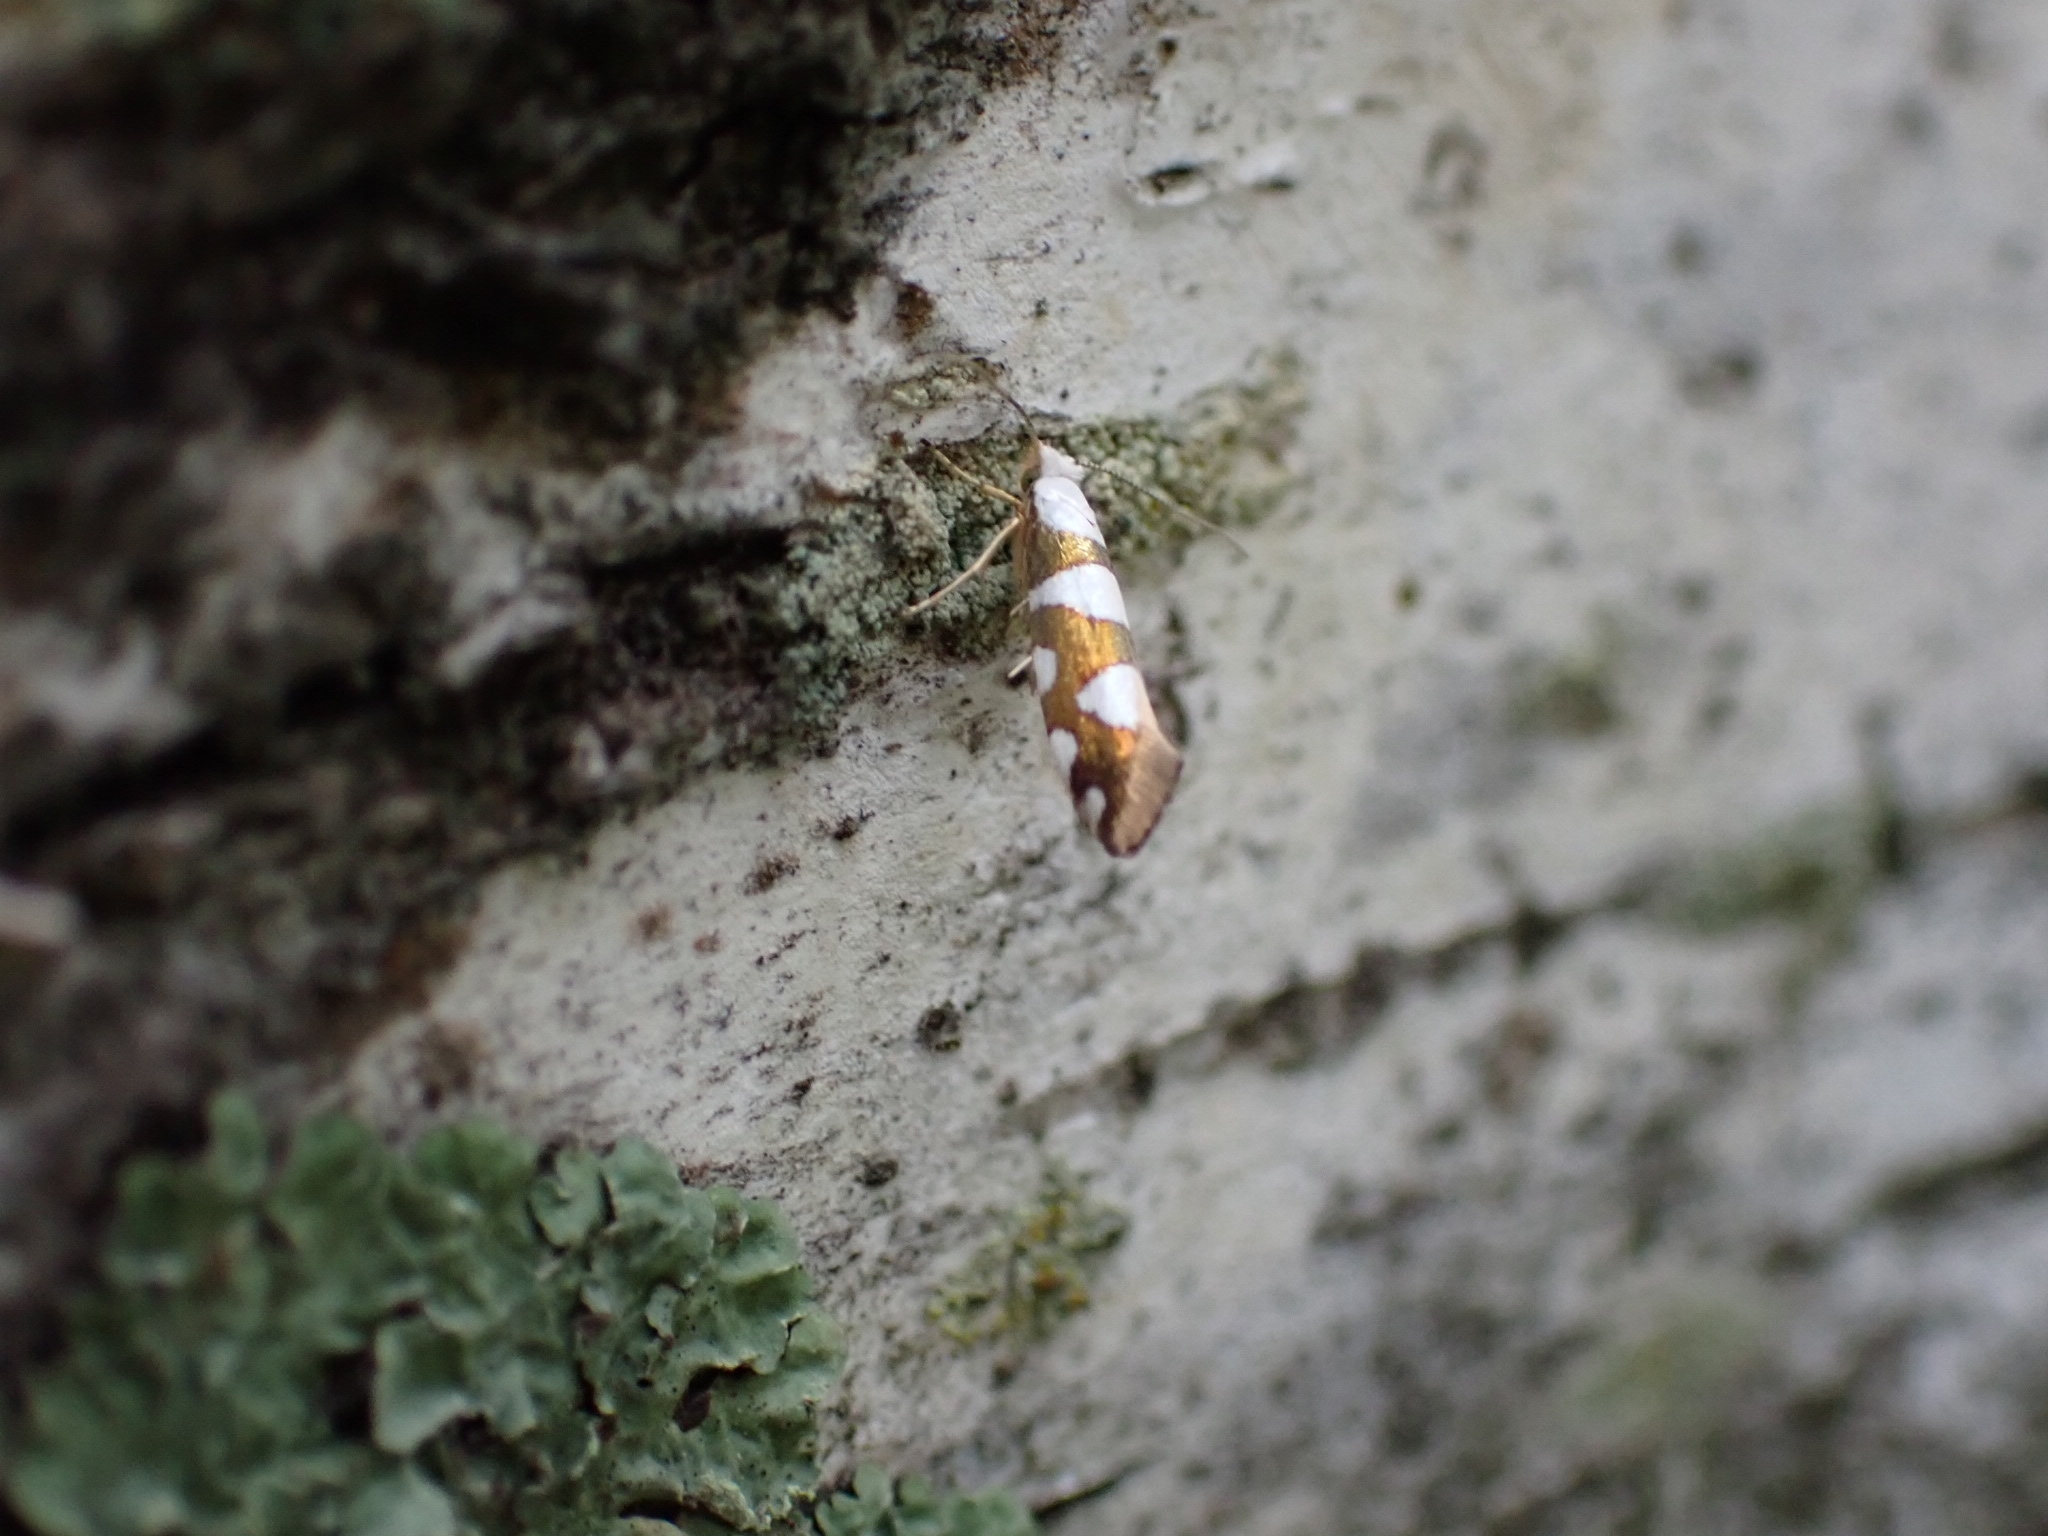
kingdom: Animalia
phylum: Arthropoda
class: Insecta
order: Lepidoptera
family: Argyresthiidae
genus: Argyresthia
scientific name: Argyresthia brockeella
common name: Gold-ribbon argent
